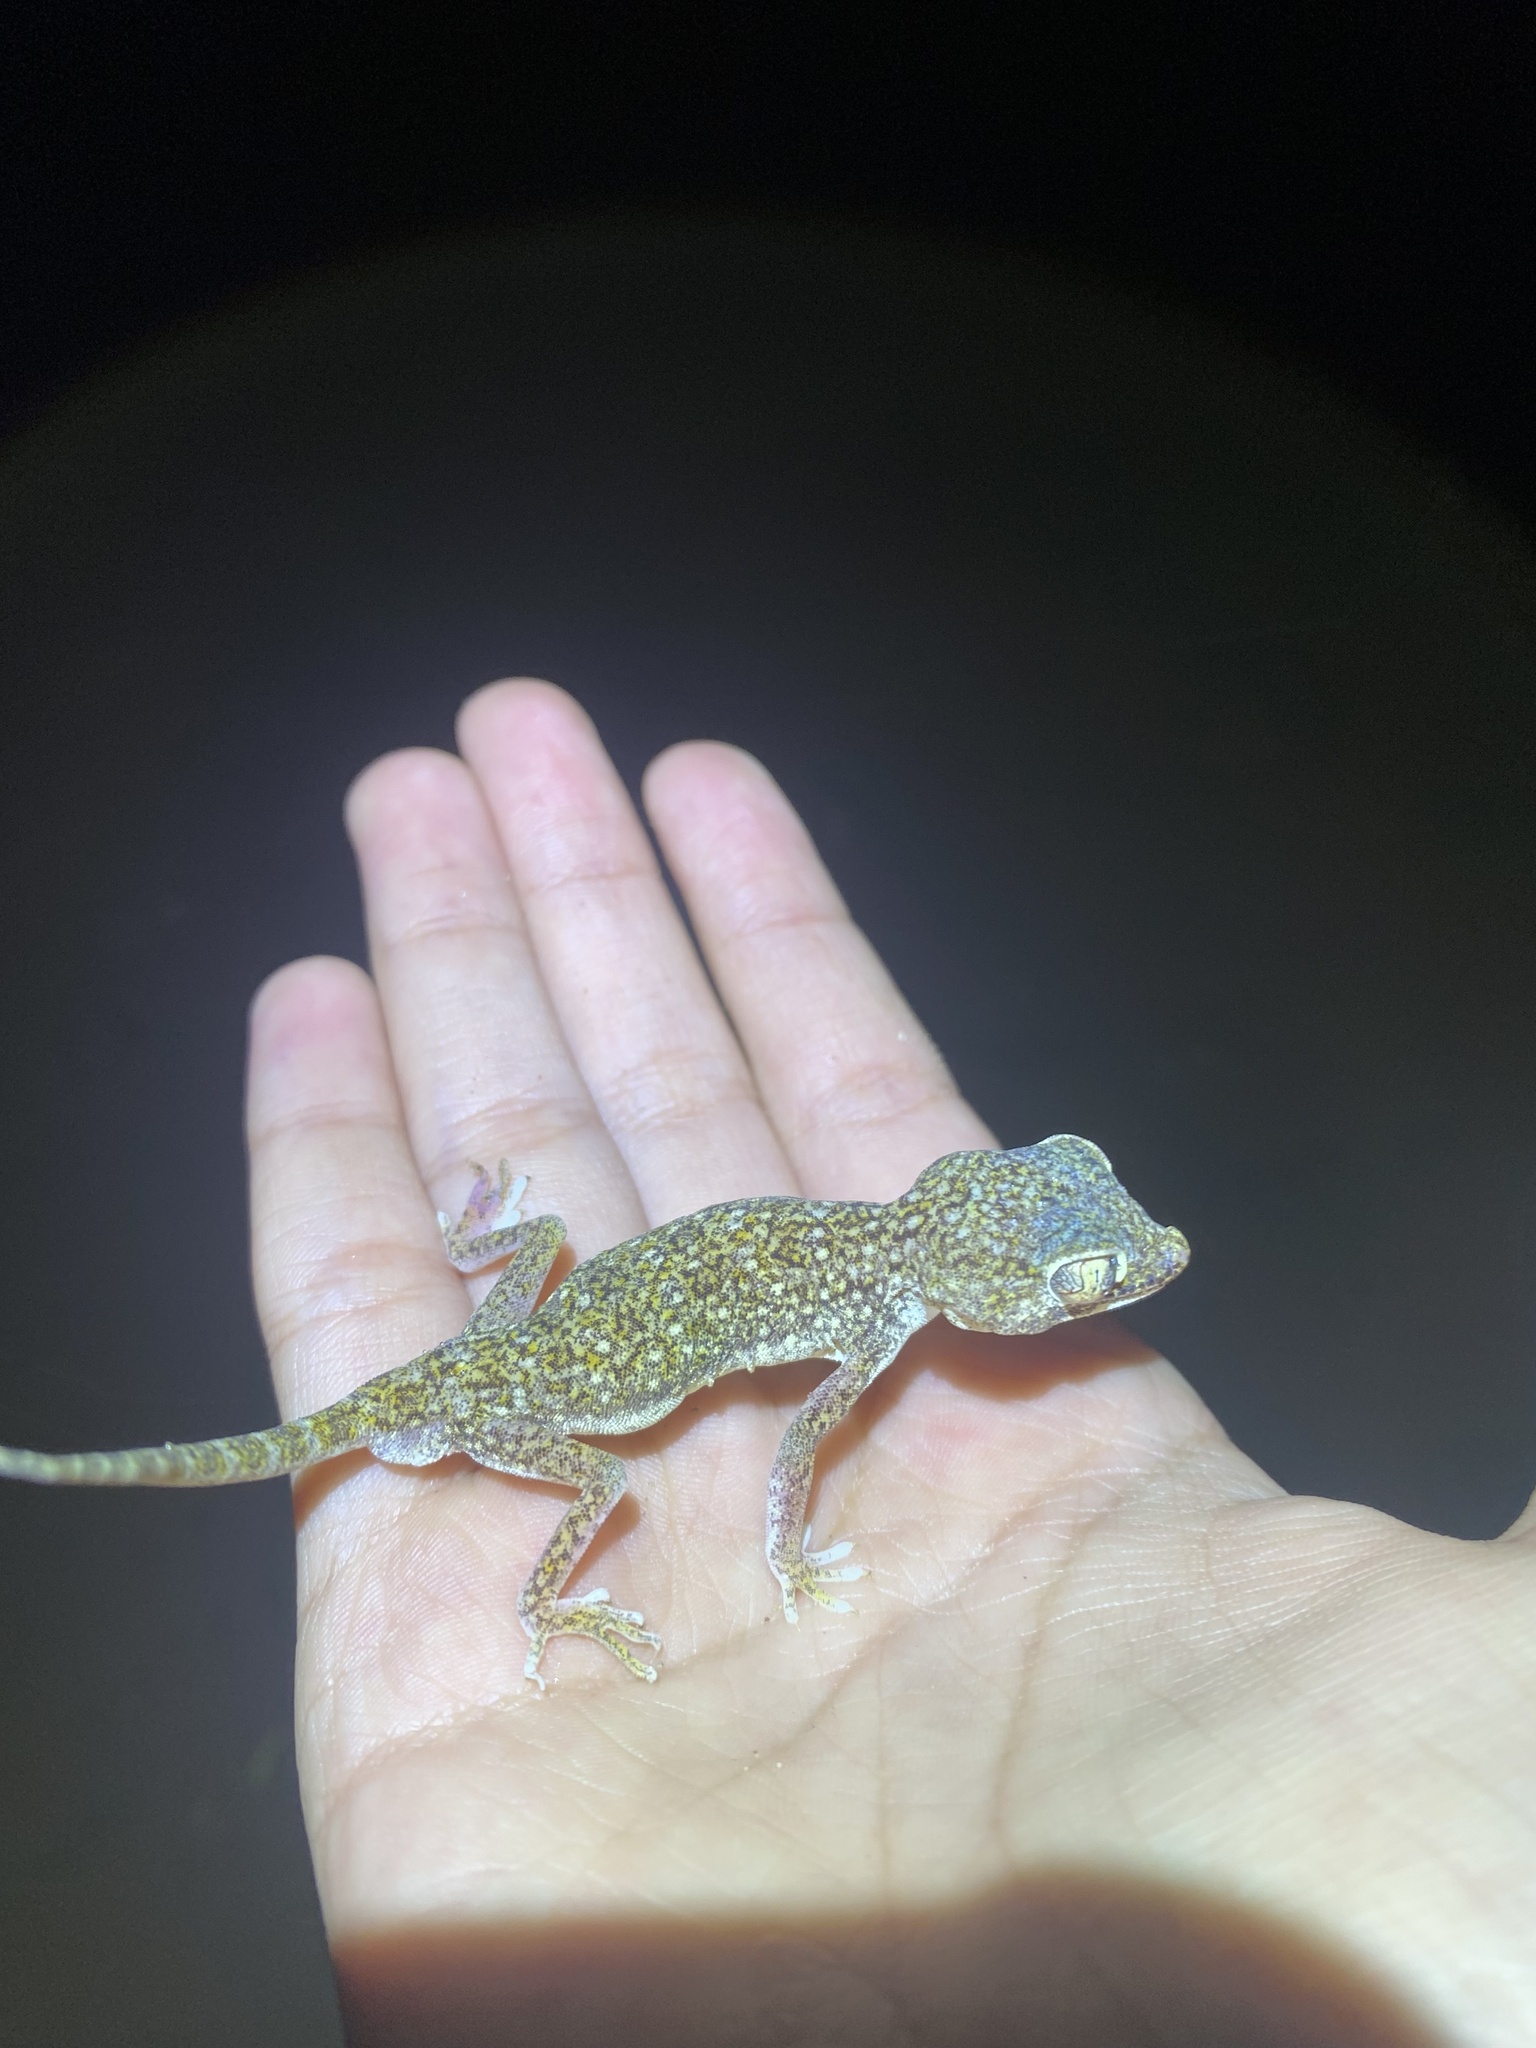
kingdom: Animalia
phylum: Chordata
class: Squamata
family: Gekkonidae
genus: Stenodactylus
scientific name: Stenodactylus doriae
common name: Dune sand gecko
